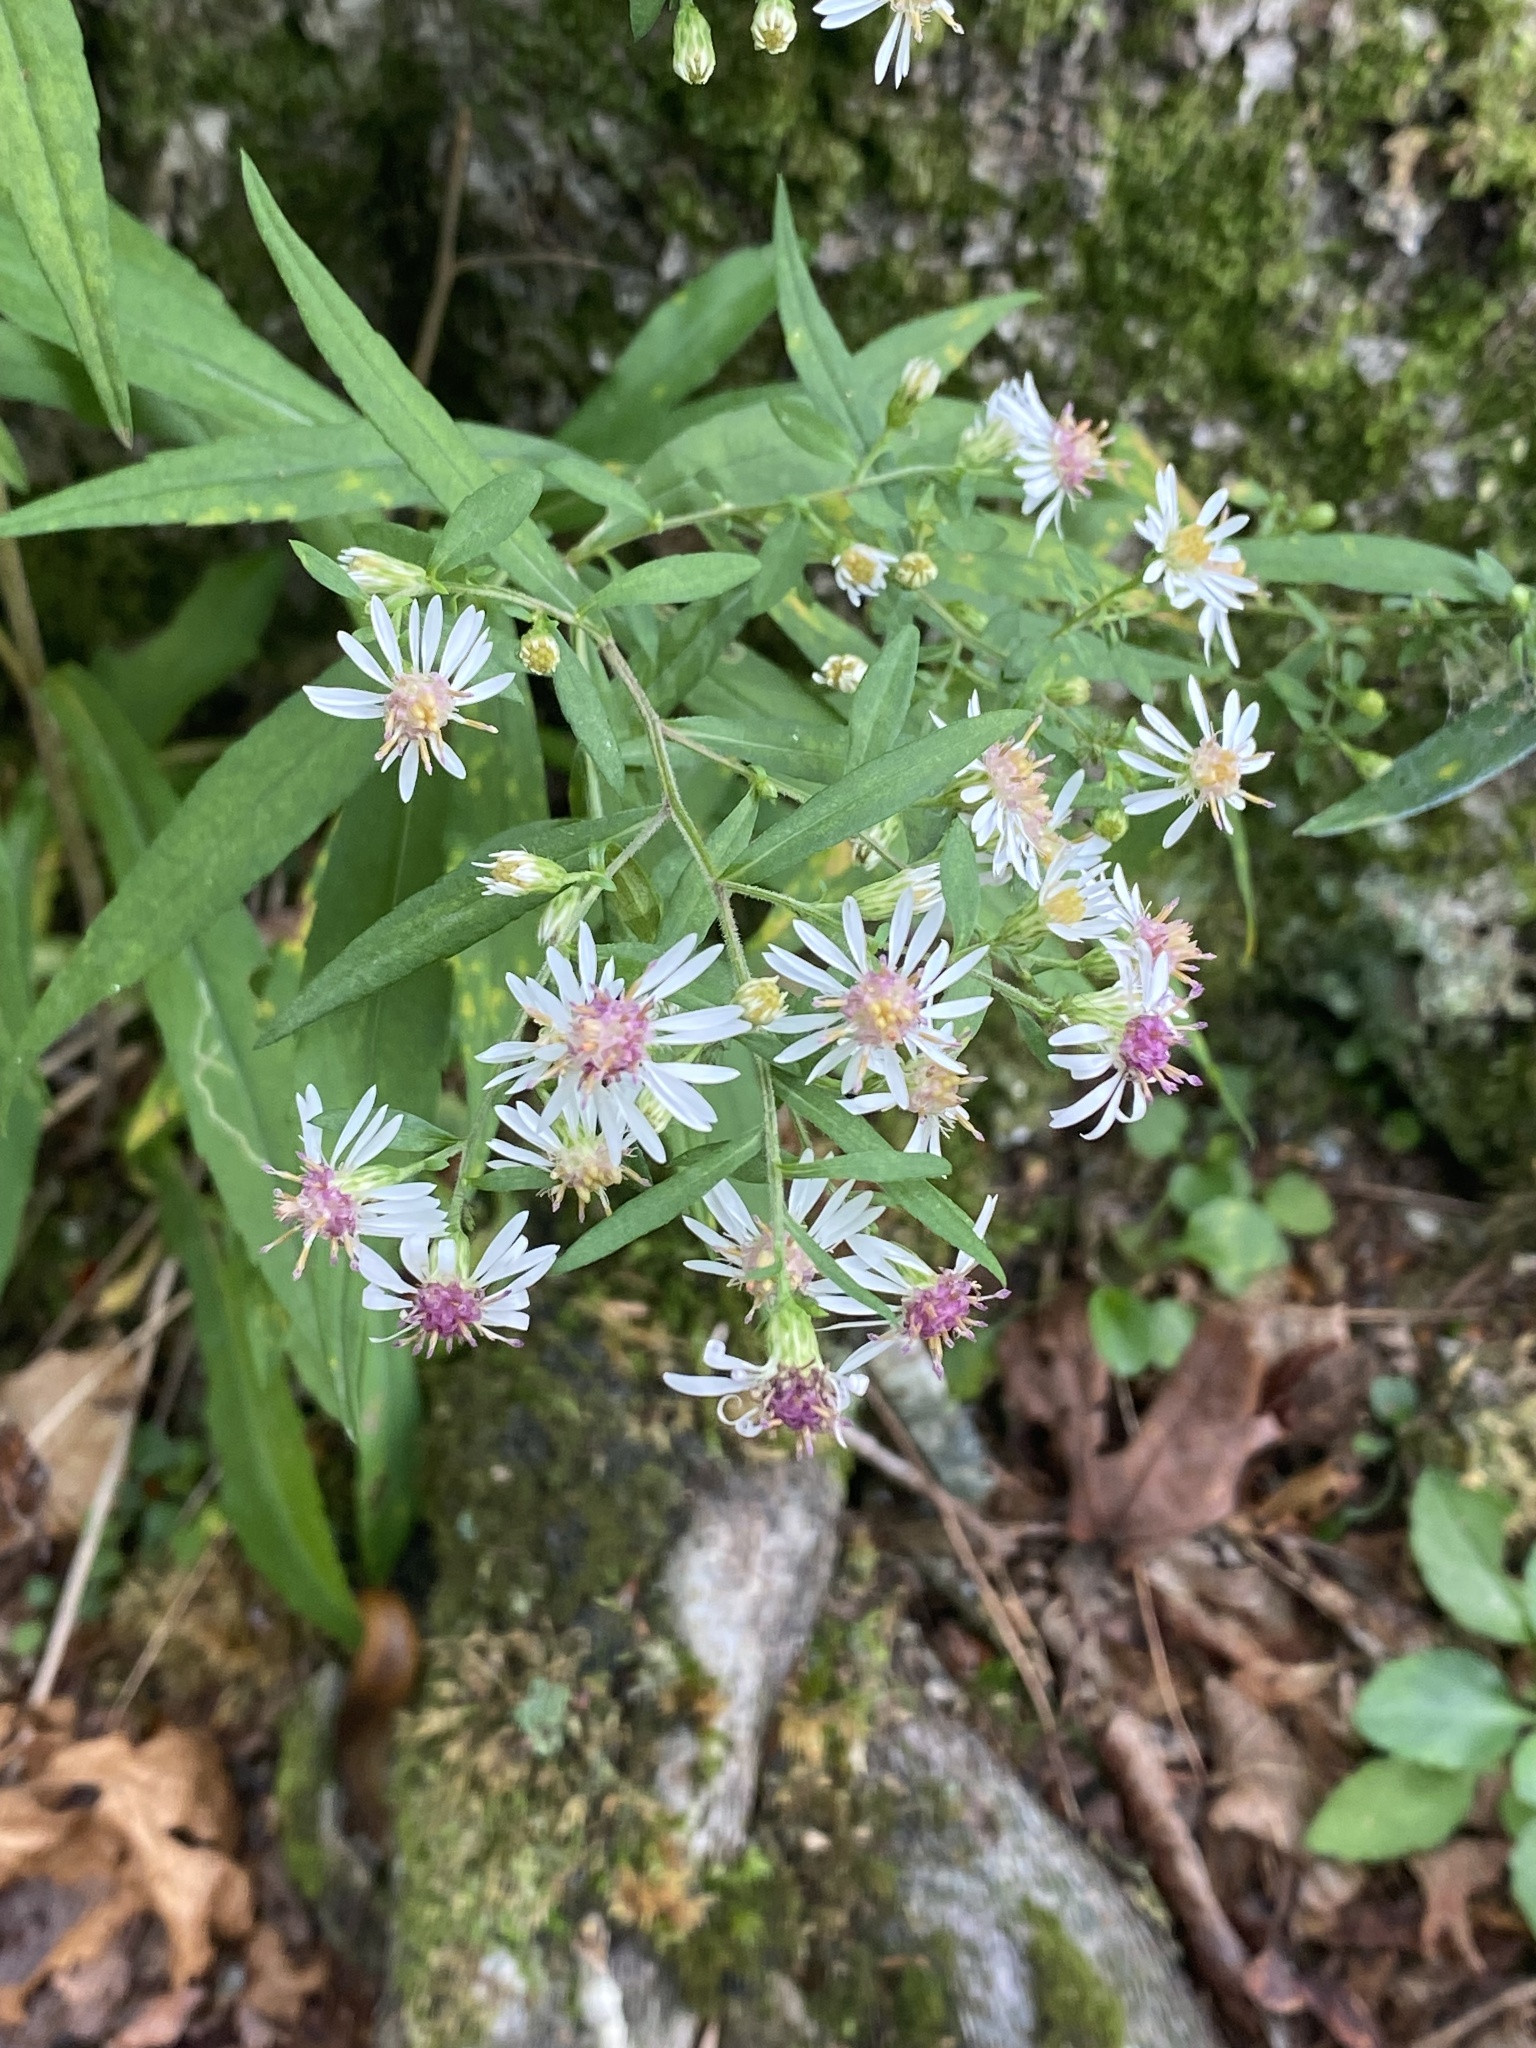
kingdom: Plantae
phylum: Tracheophyta
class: Magnoliopsida
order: Asterales
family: Asteraceae
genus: Symphyotrichum
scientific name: Symphyotrichum lateriflorum
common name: Calico aster
